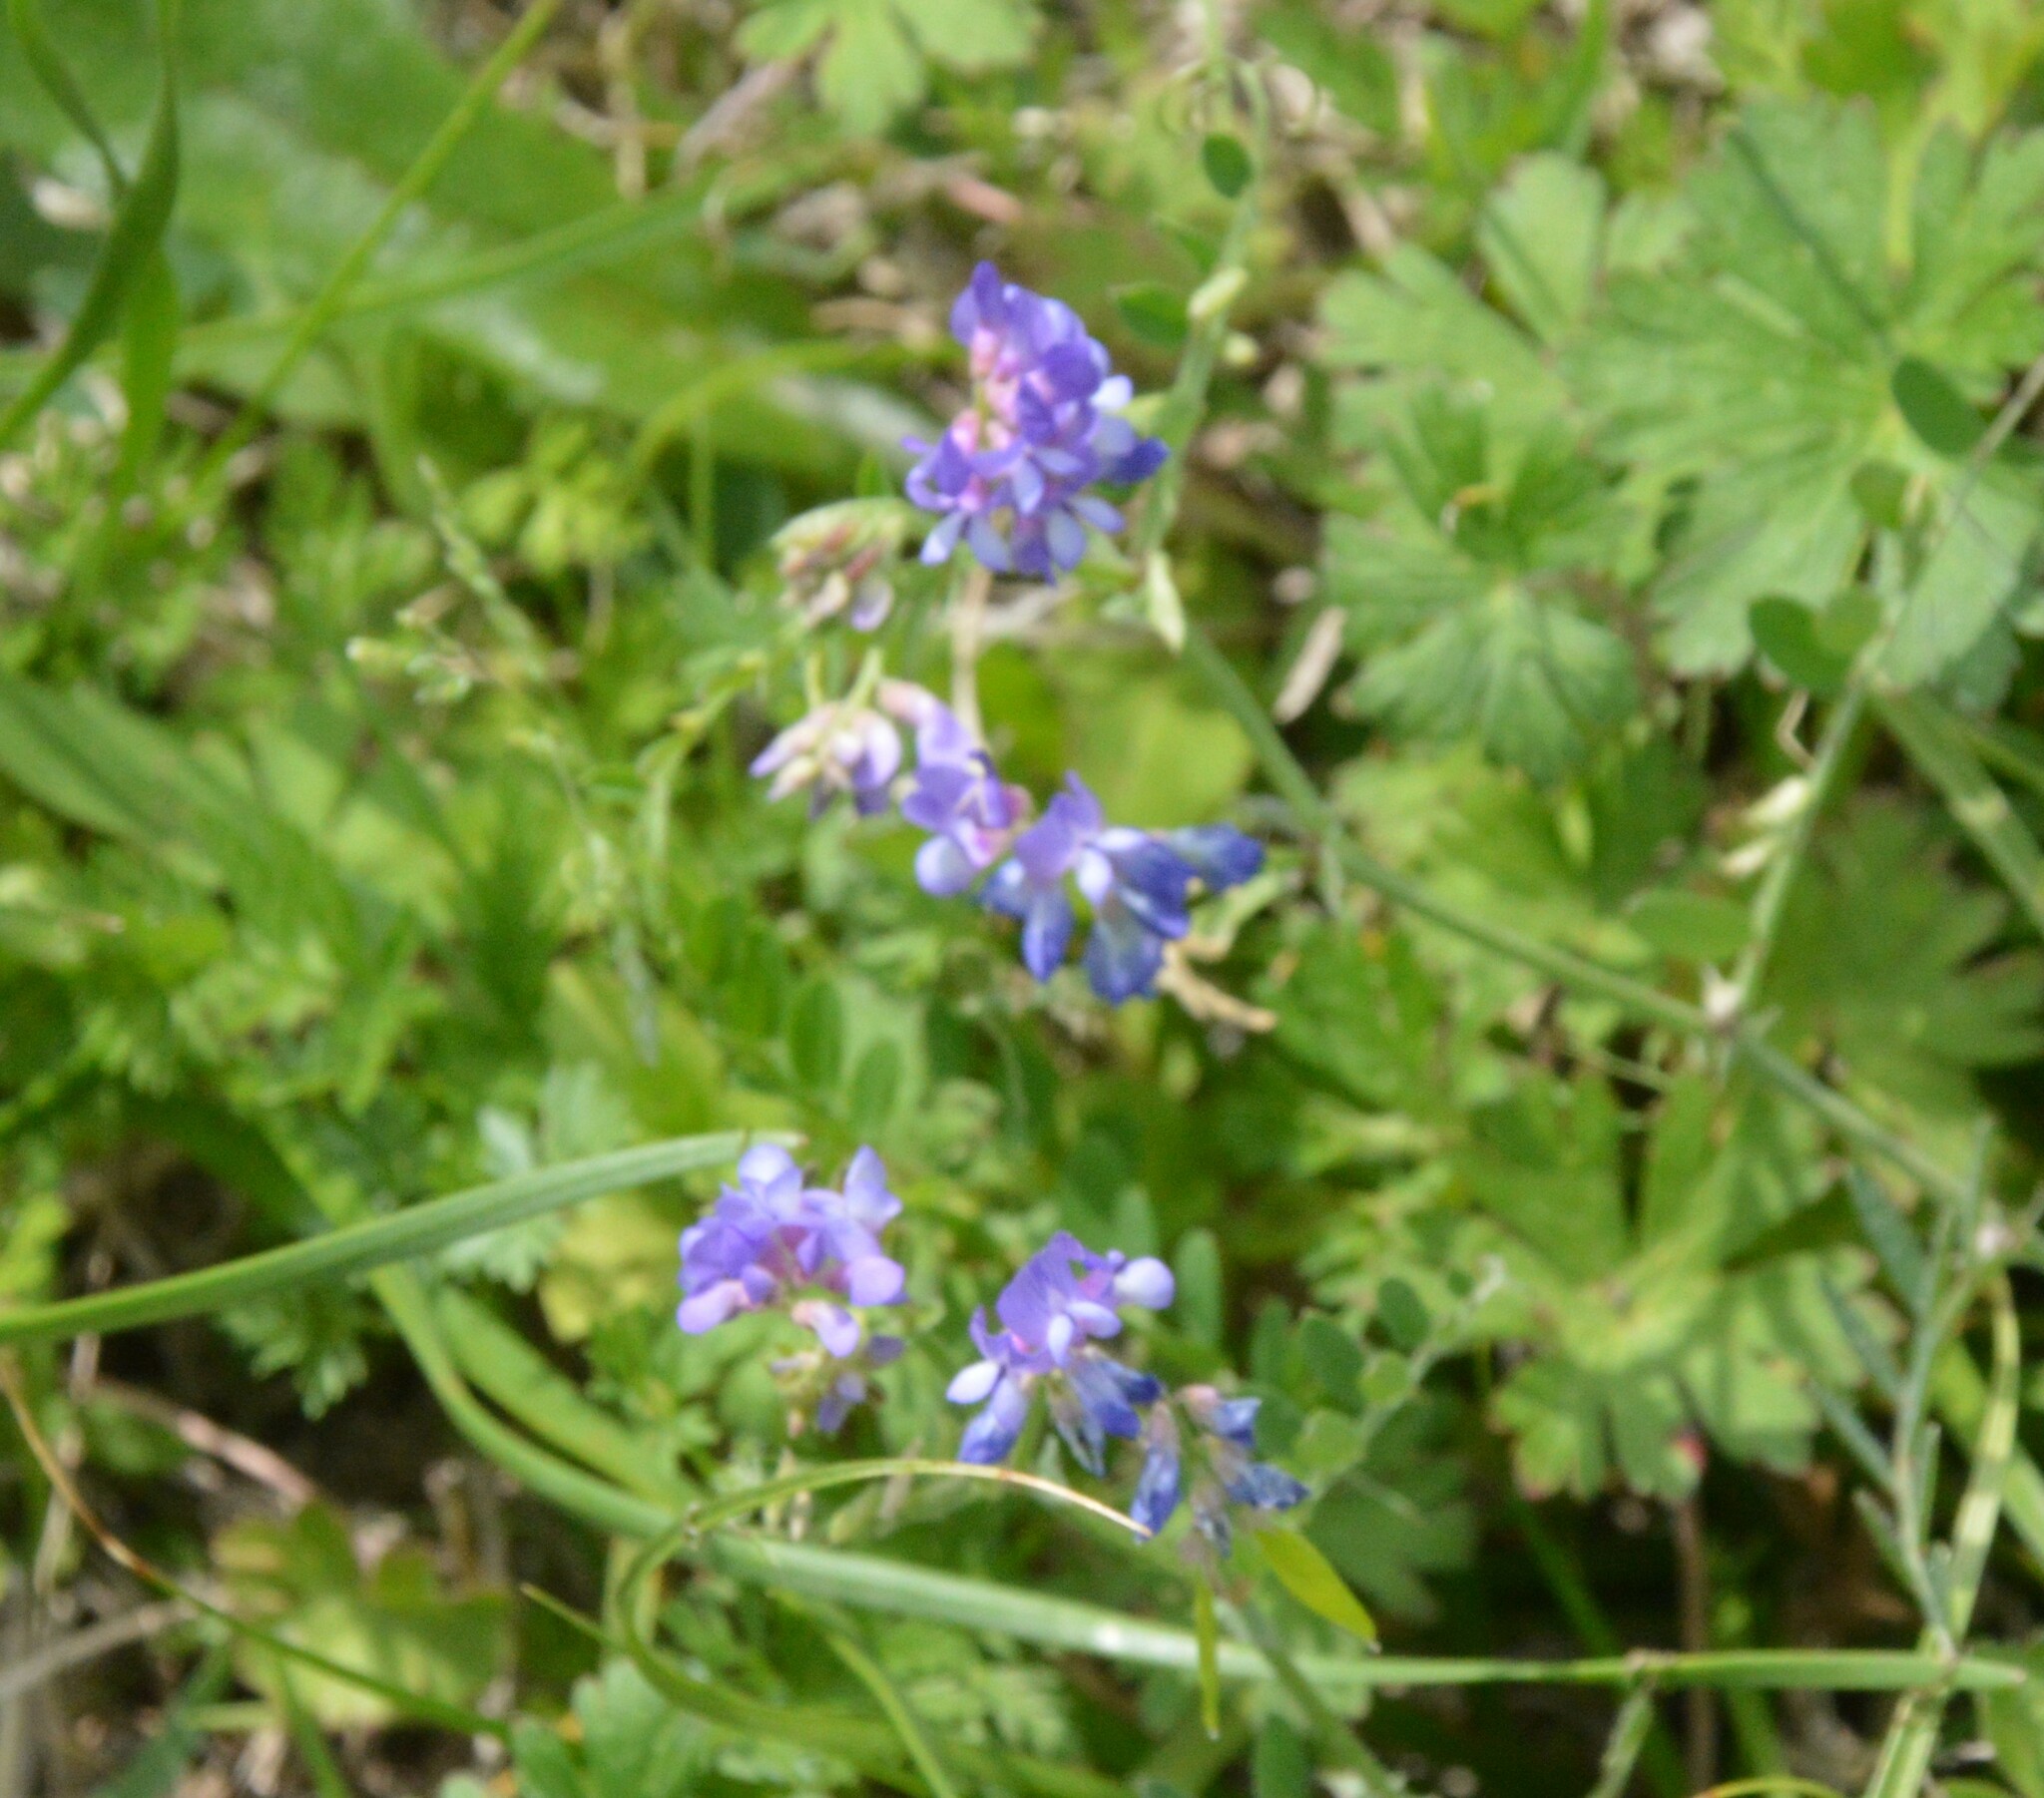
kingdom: Plantae
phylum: Tracheophyta
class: Magnoliopsida
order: Fabales
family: Fabaceae
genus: Vicia
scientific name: Vicia ludoviciana
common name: Louisiana vetch
